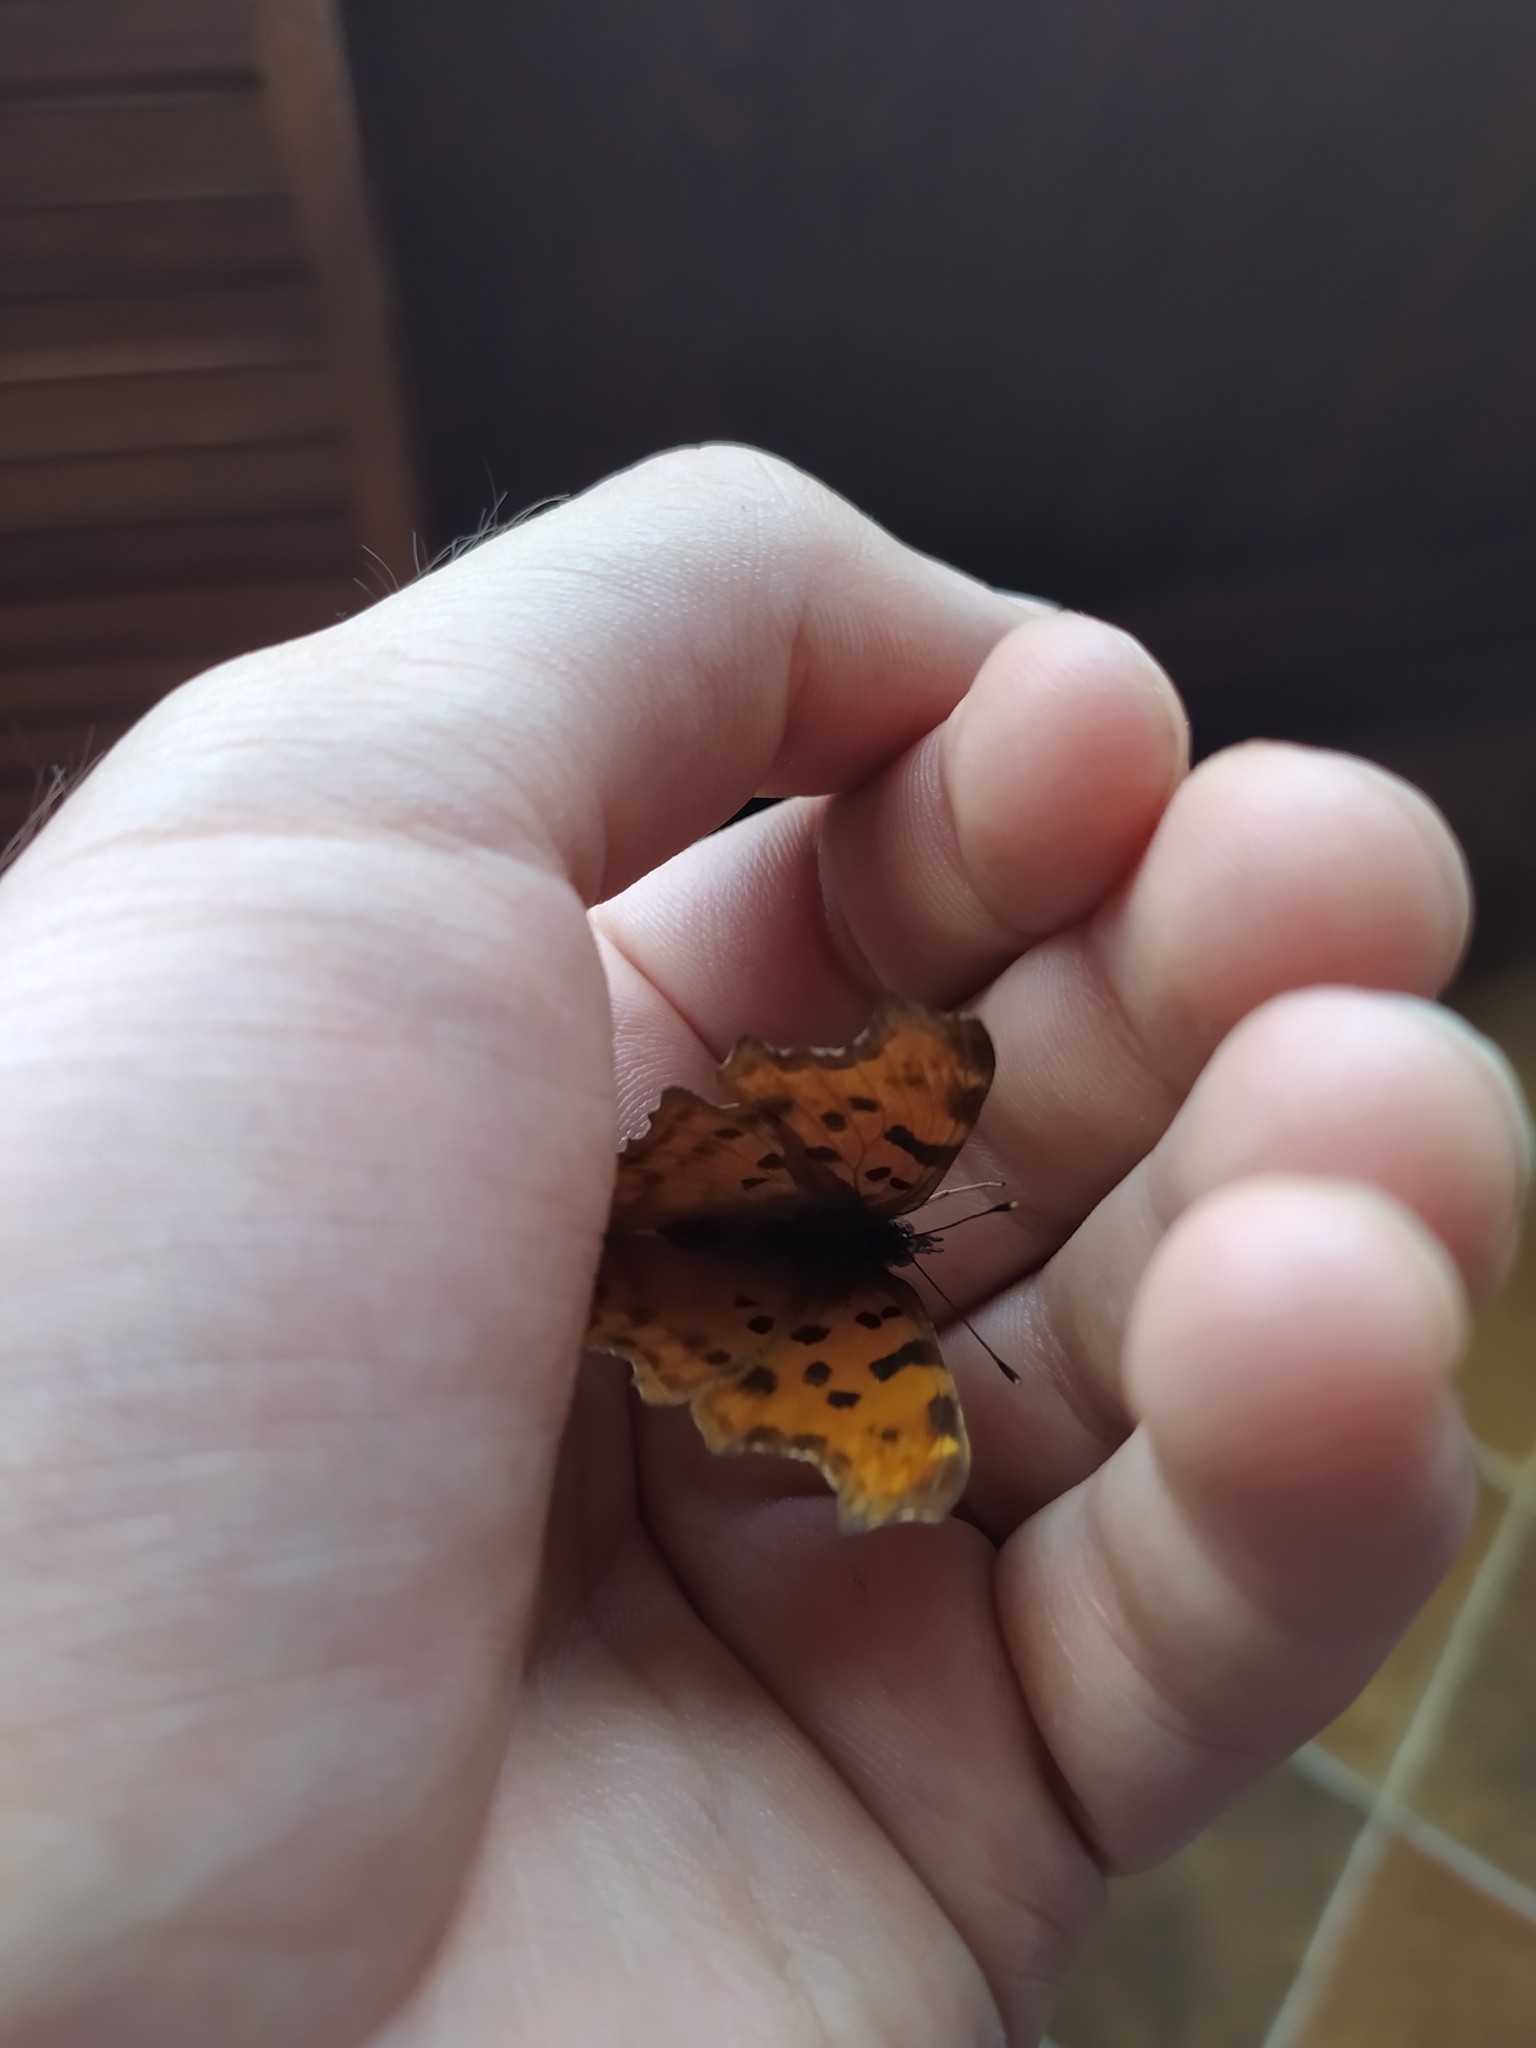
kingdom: Animalia
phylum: Arthropoda
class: Insecta
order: Lepidoptera
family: Nymphalidae
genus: Polygonia
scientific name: Polygonia c-album
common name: Comma
